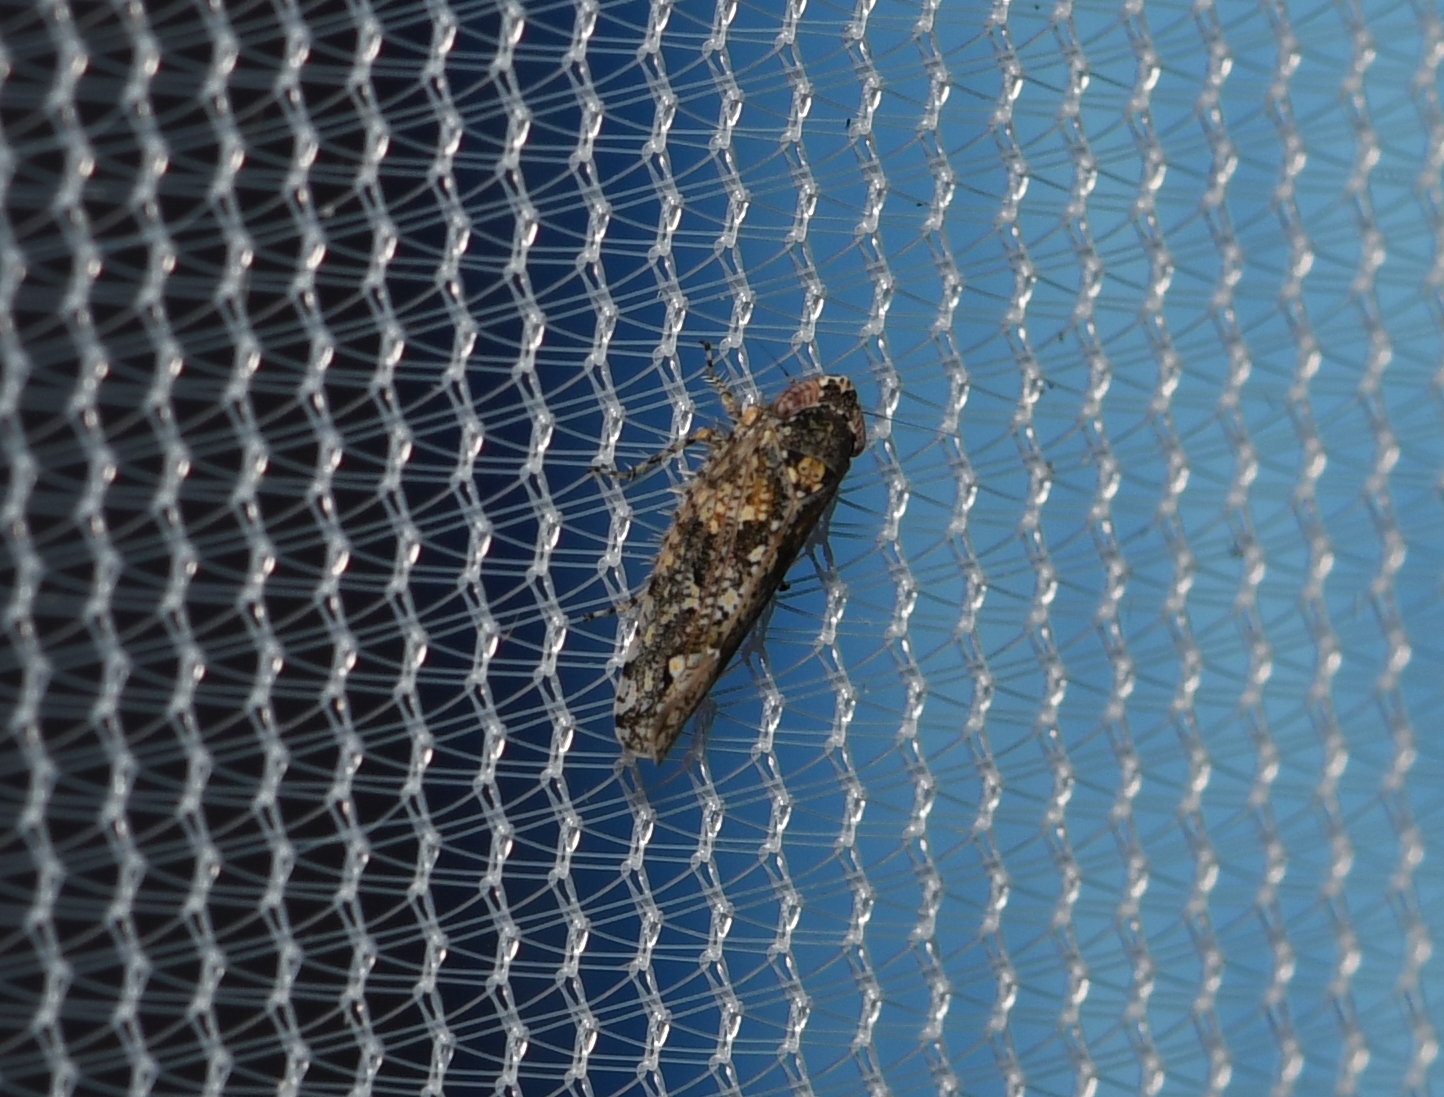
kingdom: Animalia
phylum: Arthropoda
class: Insecta
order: Hemiptera
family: Cicadellidae
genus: Dixianus
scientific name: Dixianus utahnus
